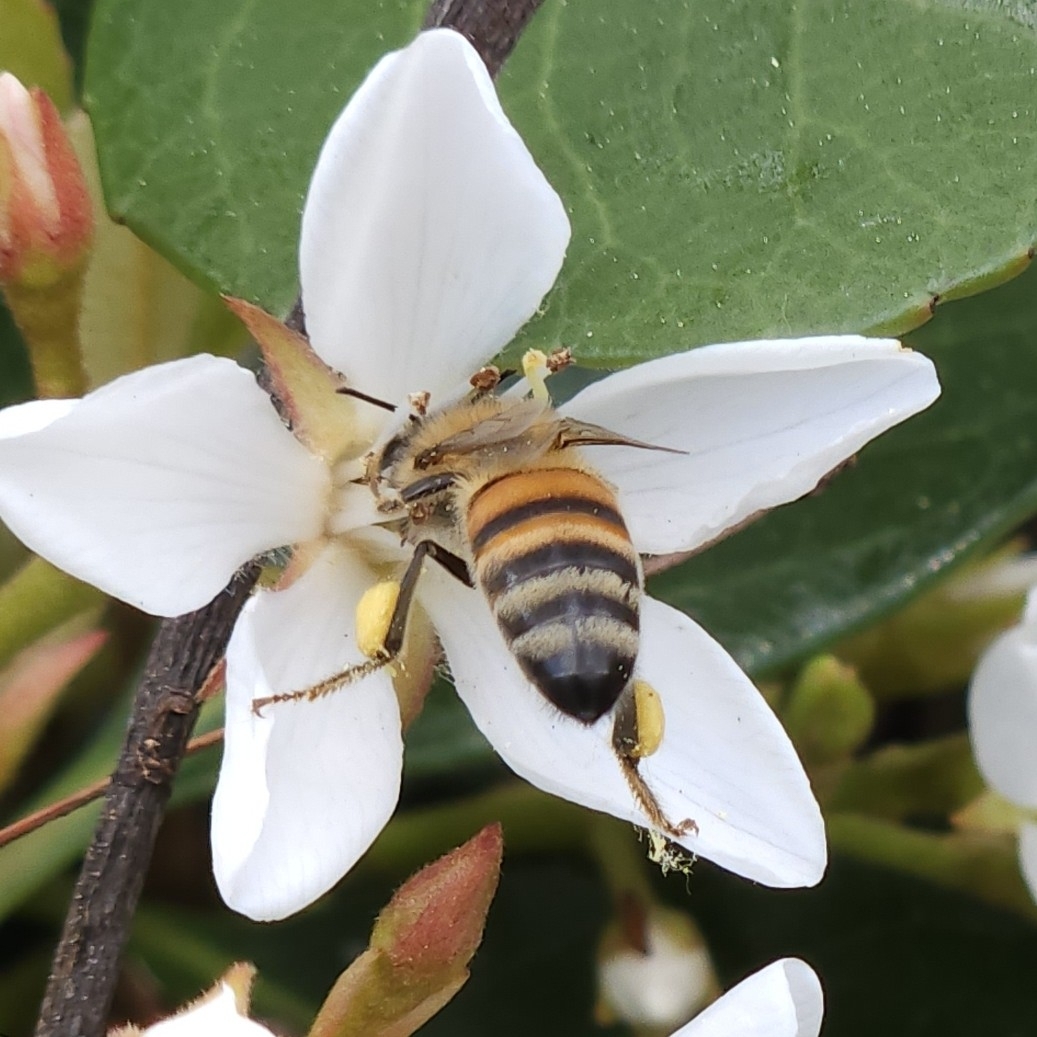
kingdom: Animalia
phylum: Arthropoda
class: Insecta
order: Hymenoptera
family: Apidae
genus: Apis
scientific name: Apis mellifera
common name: Honey bee
